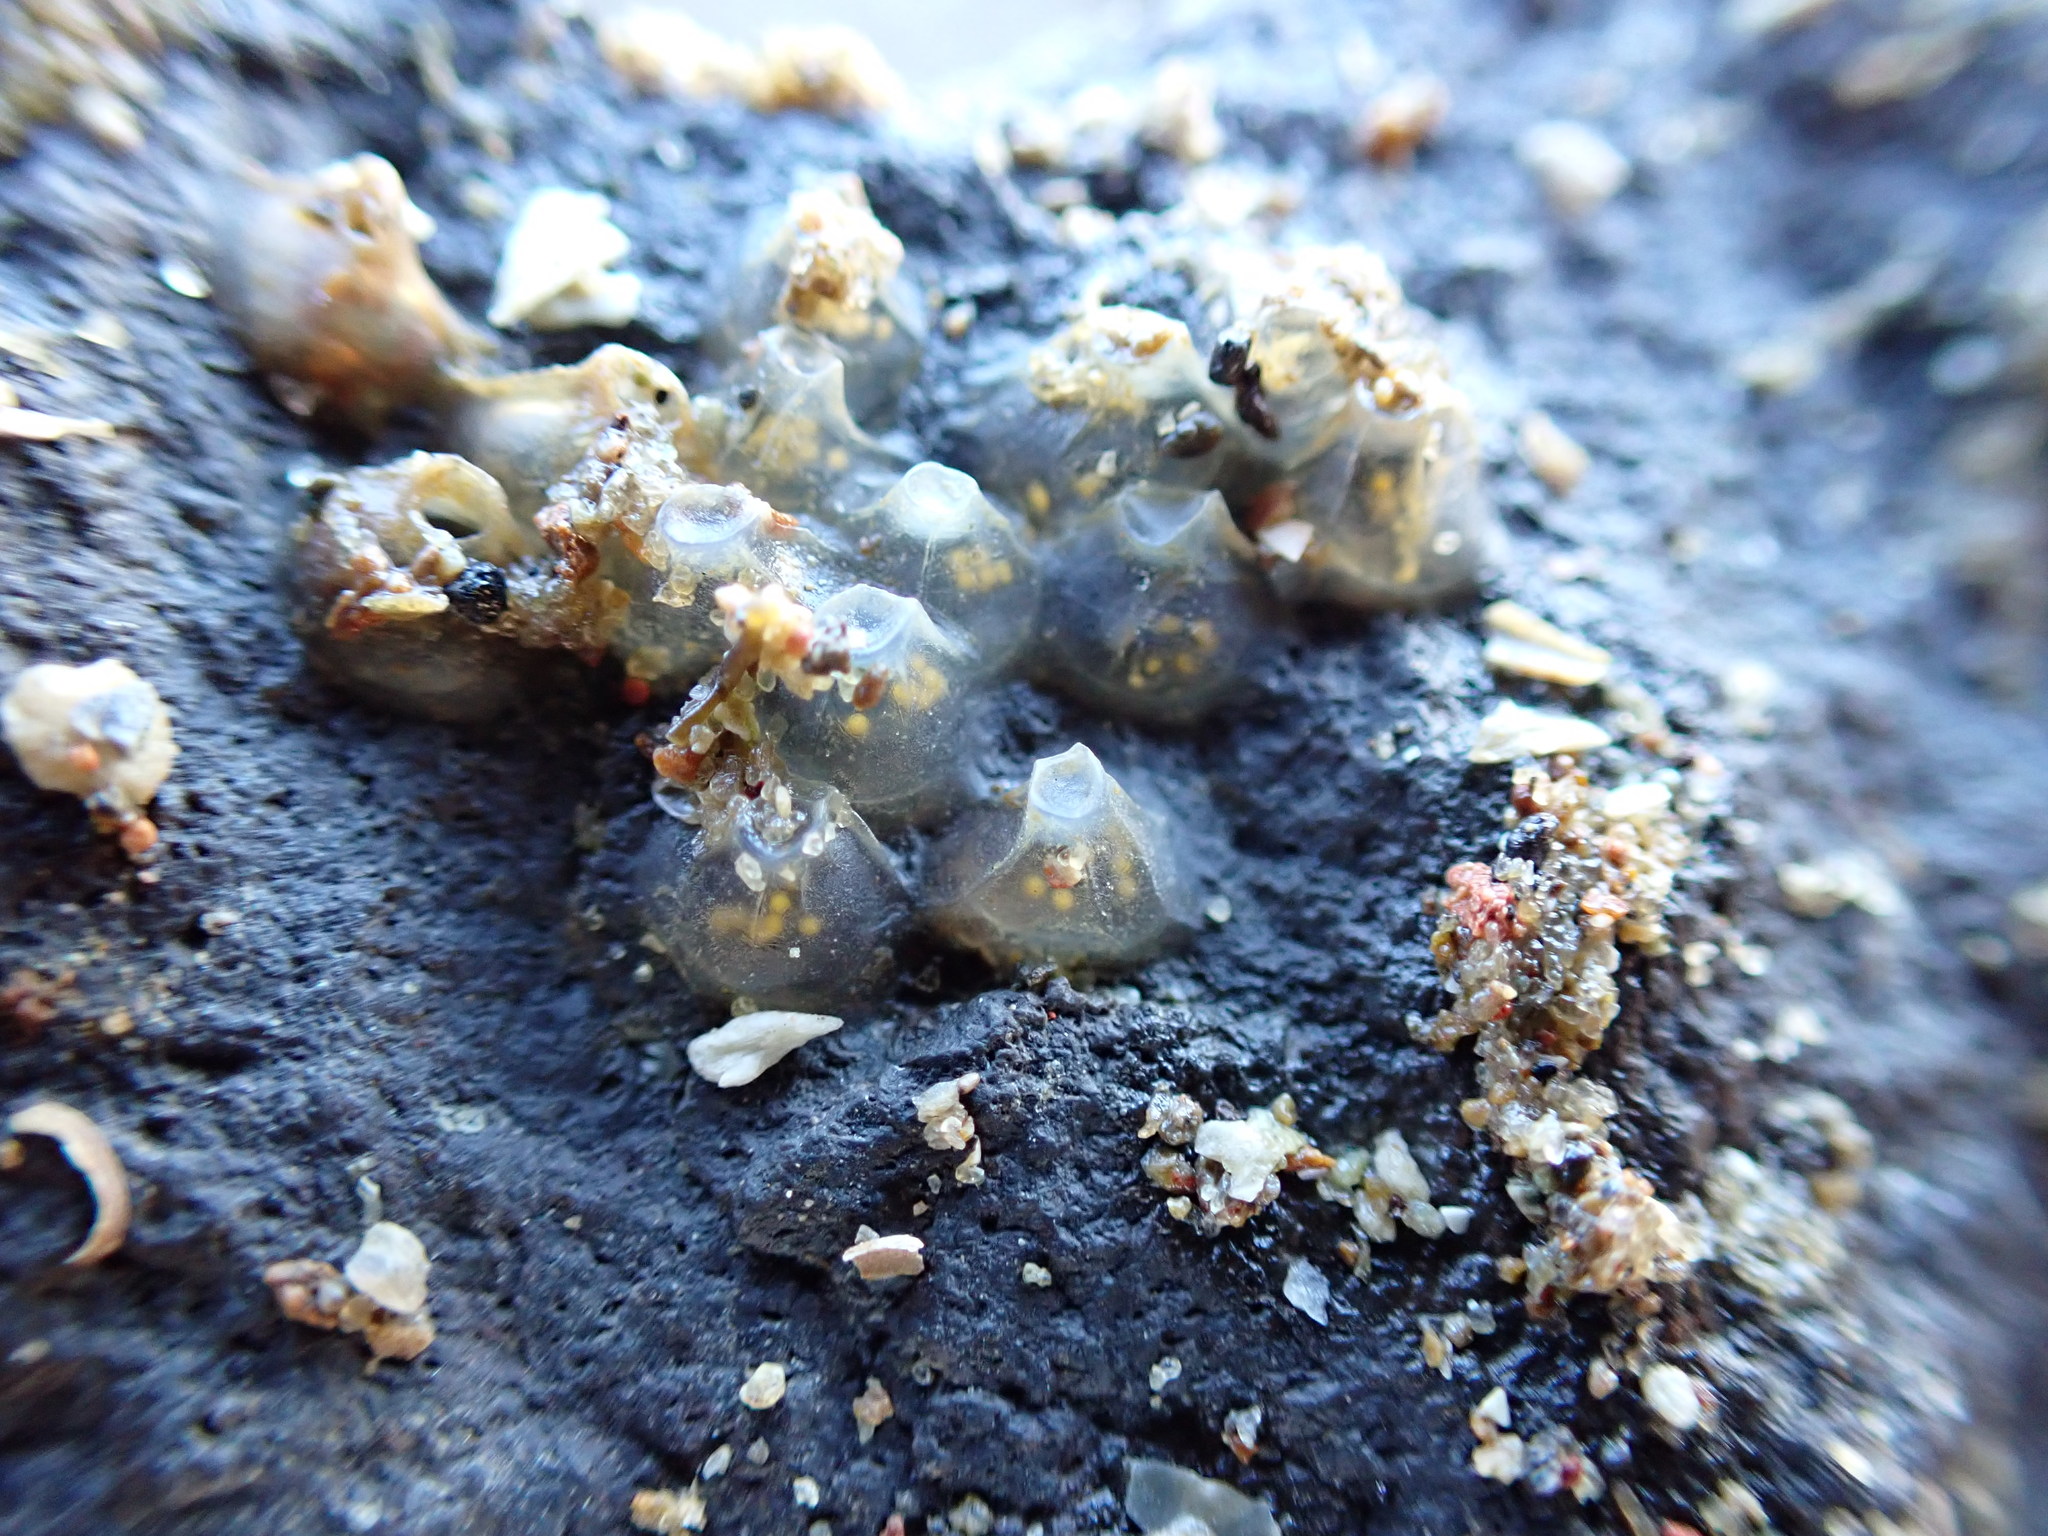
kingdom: Animalia
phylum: Mollusca
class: Gastropoda
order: Neogastropoda
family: Cominellidae
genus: Cominella
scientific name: Cominella glandiformis
